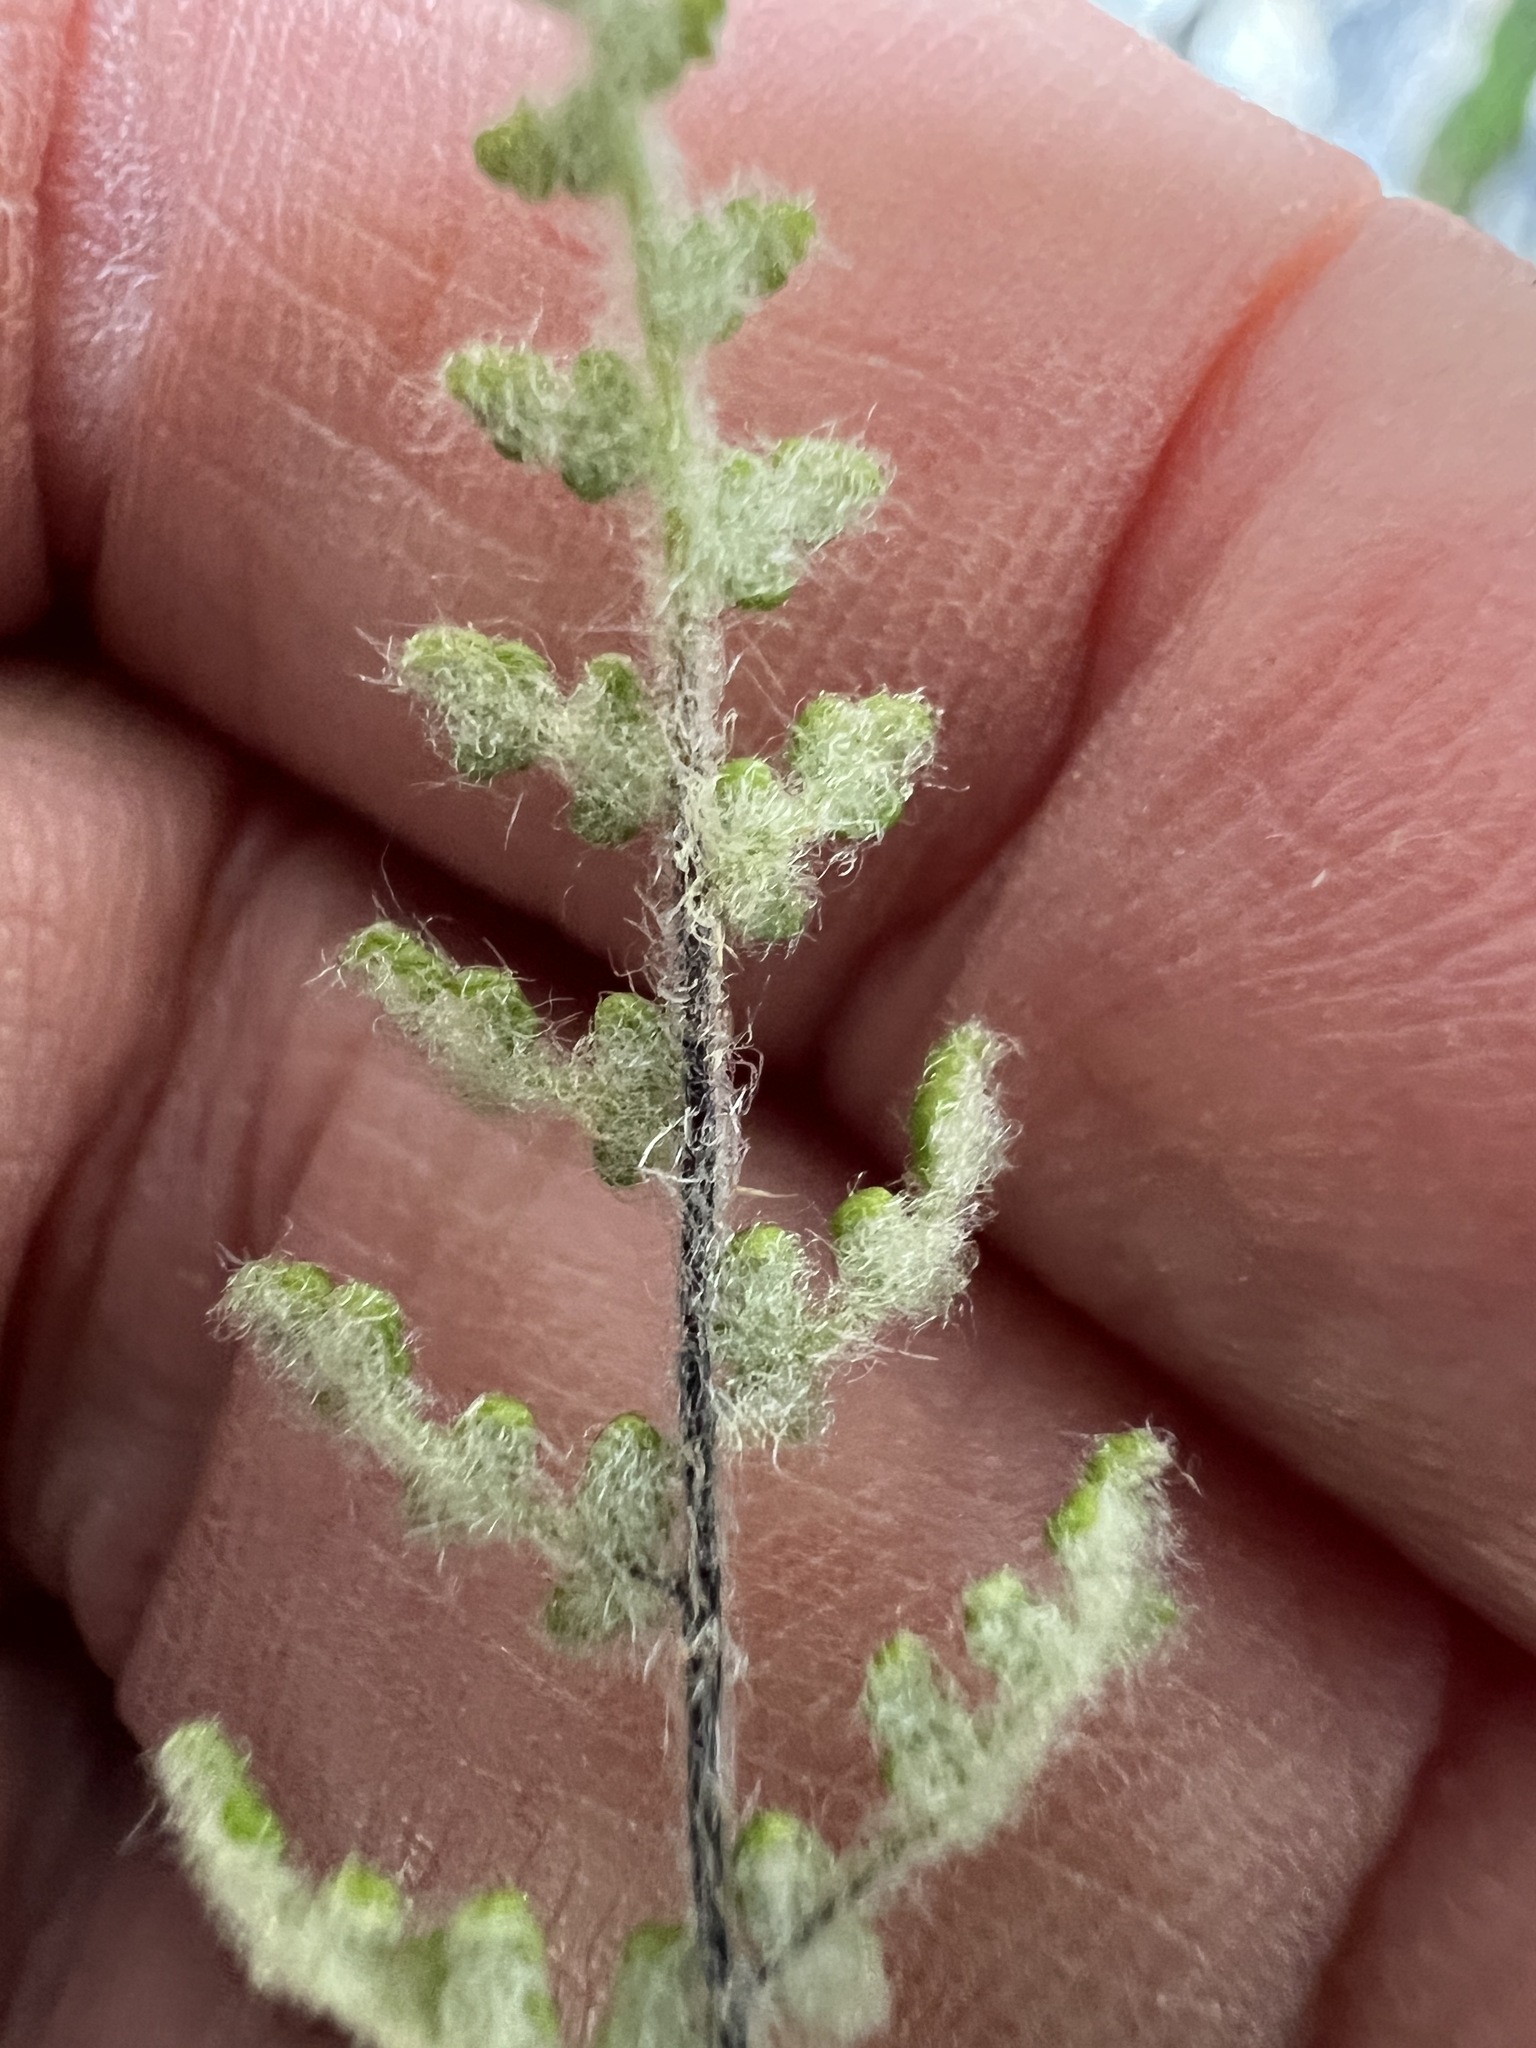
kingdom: Plantae
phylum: Tracheophyta
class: Polypodiopsida
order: Polypodiales
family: Pteridaceae
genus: Myriopteris
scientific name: Myriopteris gracilis
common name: Fee's lip fern
